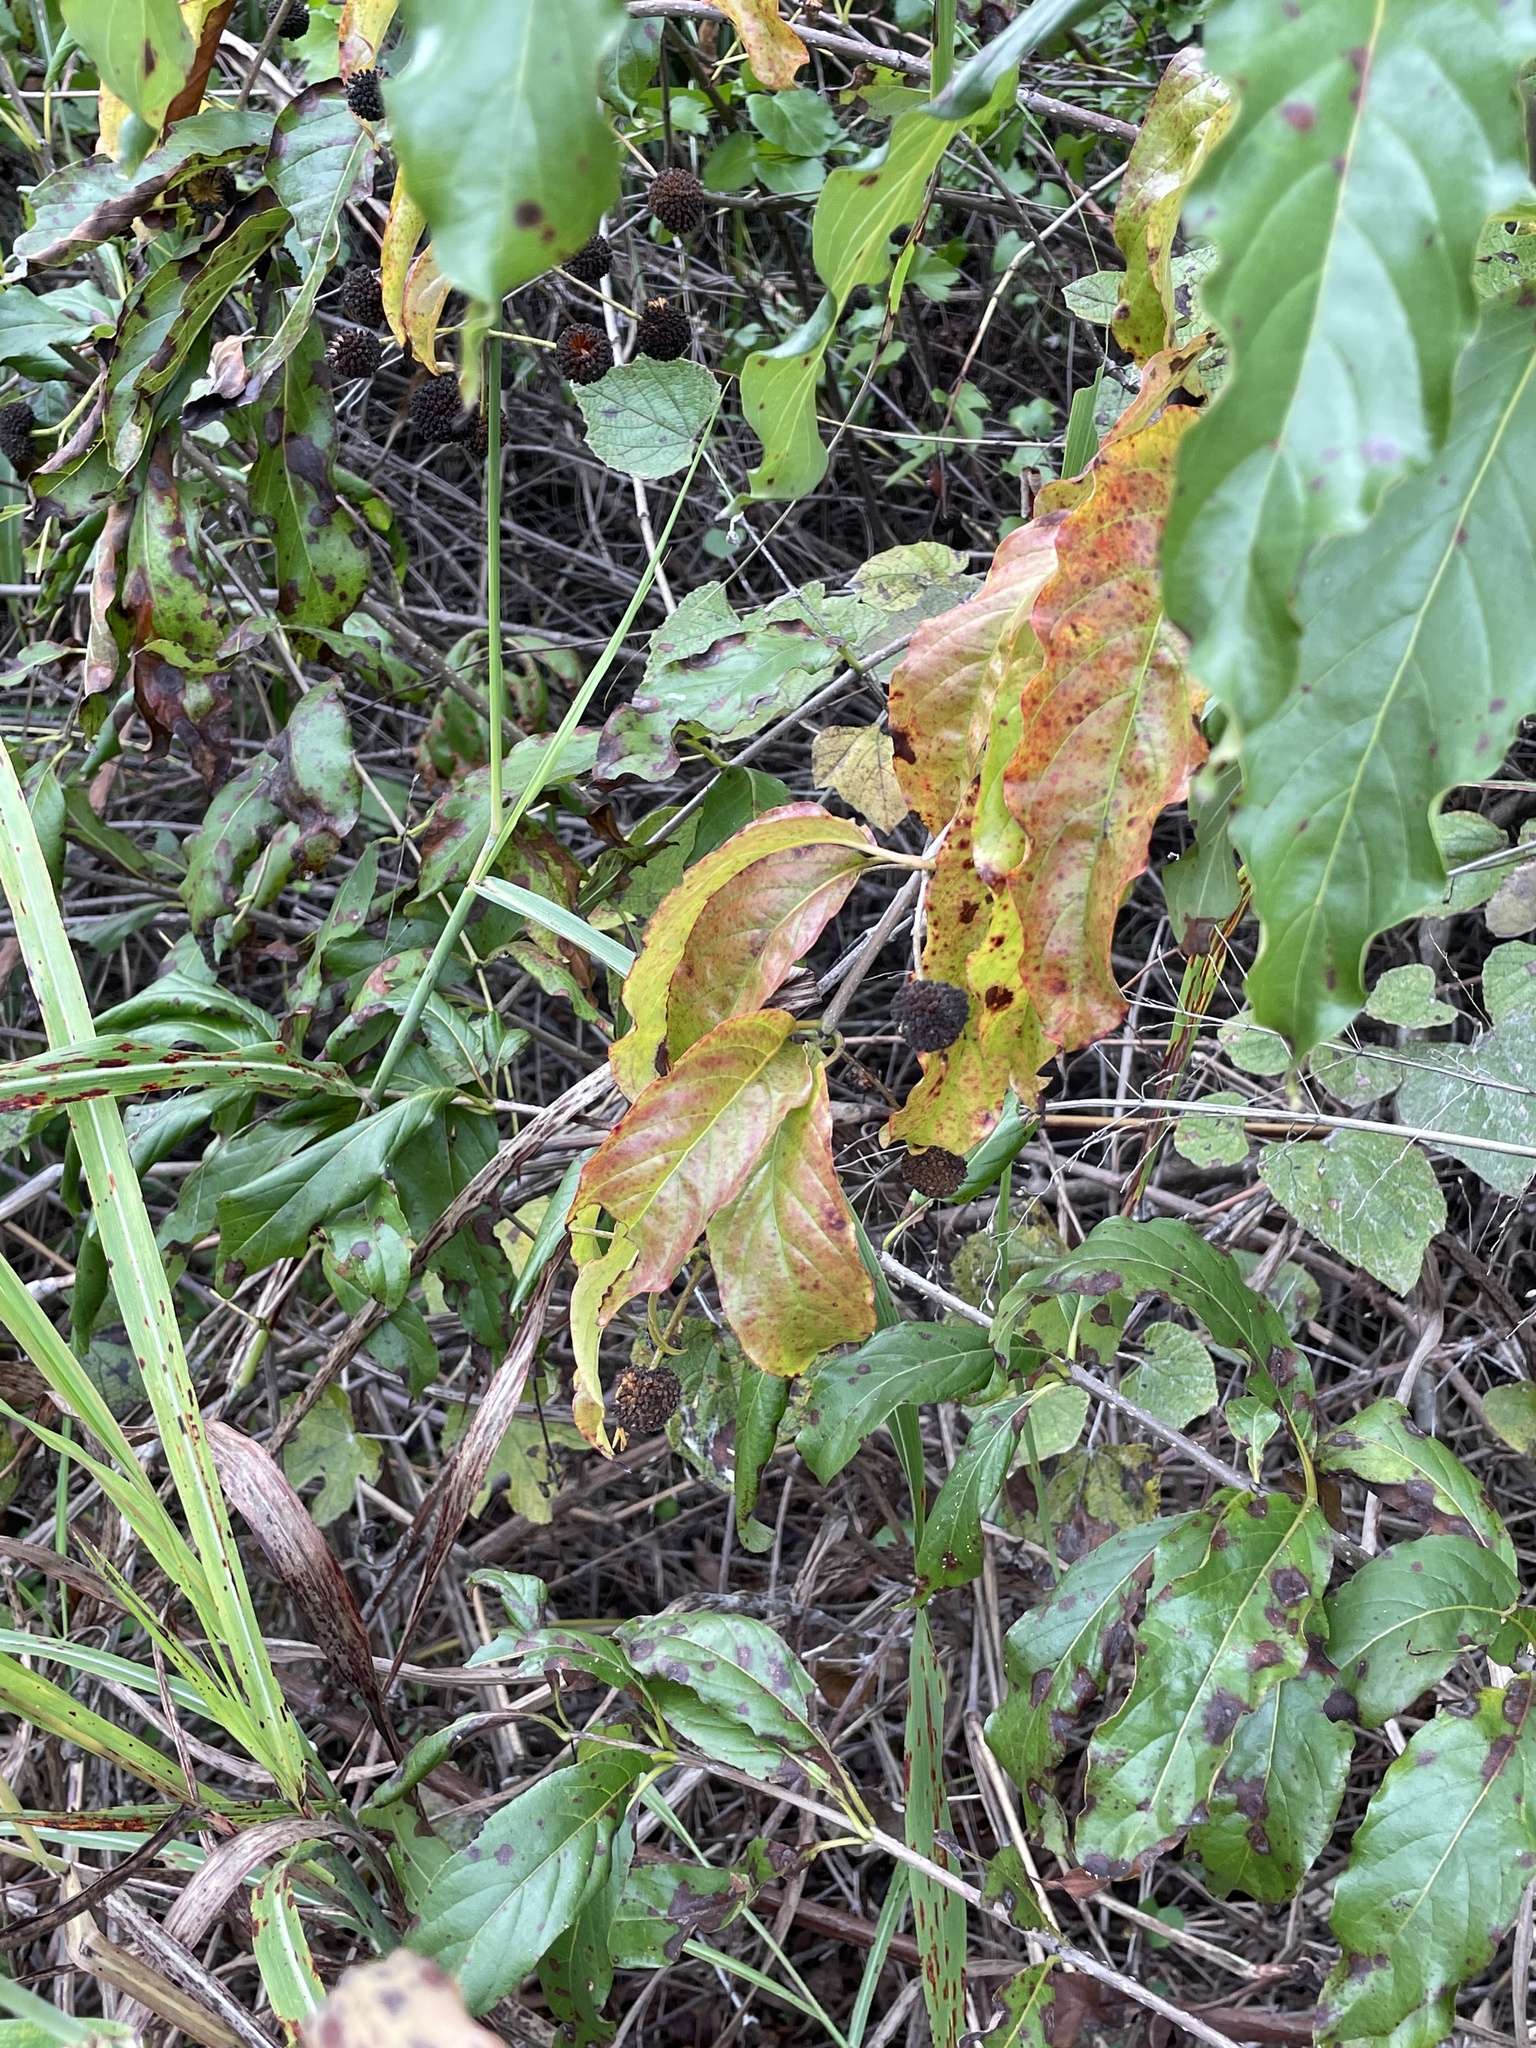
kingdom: Plantae
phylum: Tracheophyta
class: Magnoliopsida
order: Gentianales
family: Rubiaceae
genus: Cephalanthus
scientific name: Cephalanthus occidentalis
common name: Button-willow
